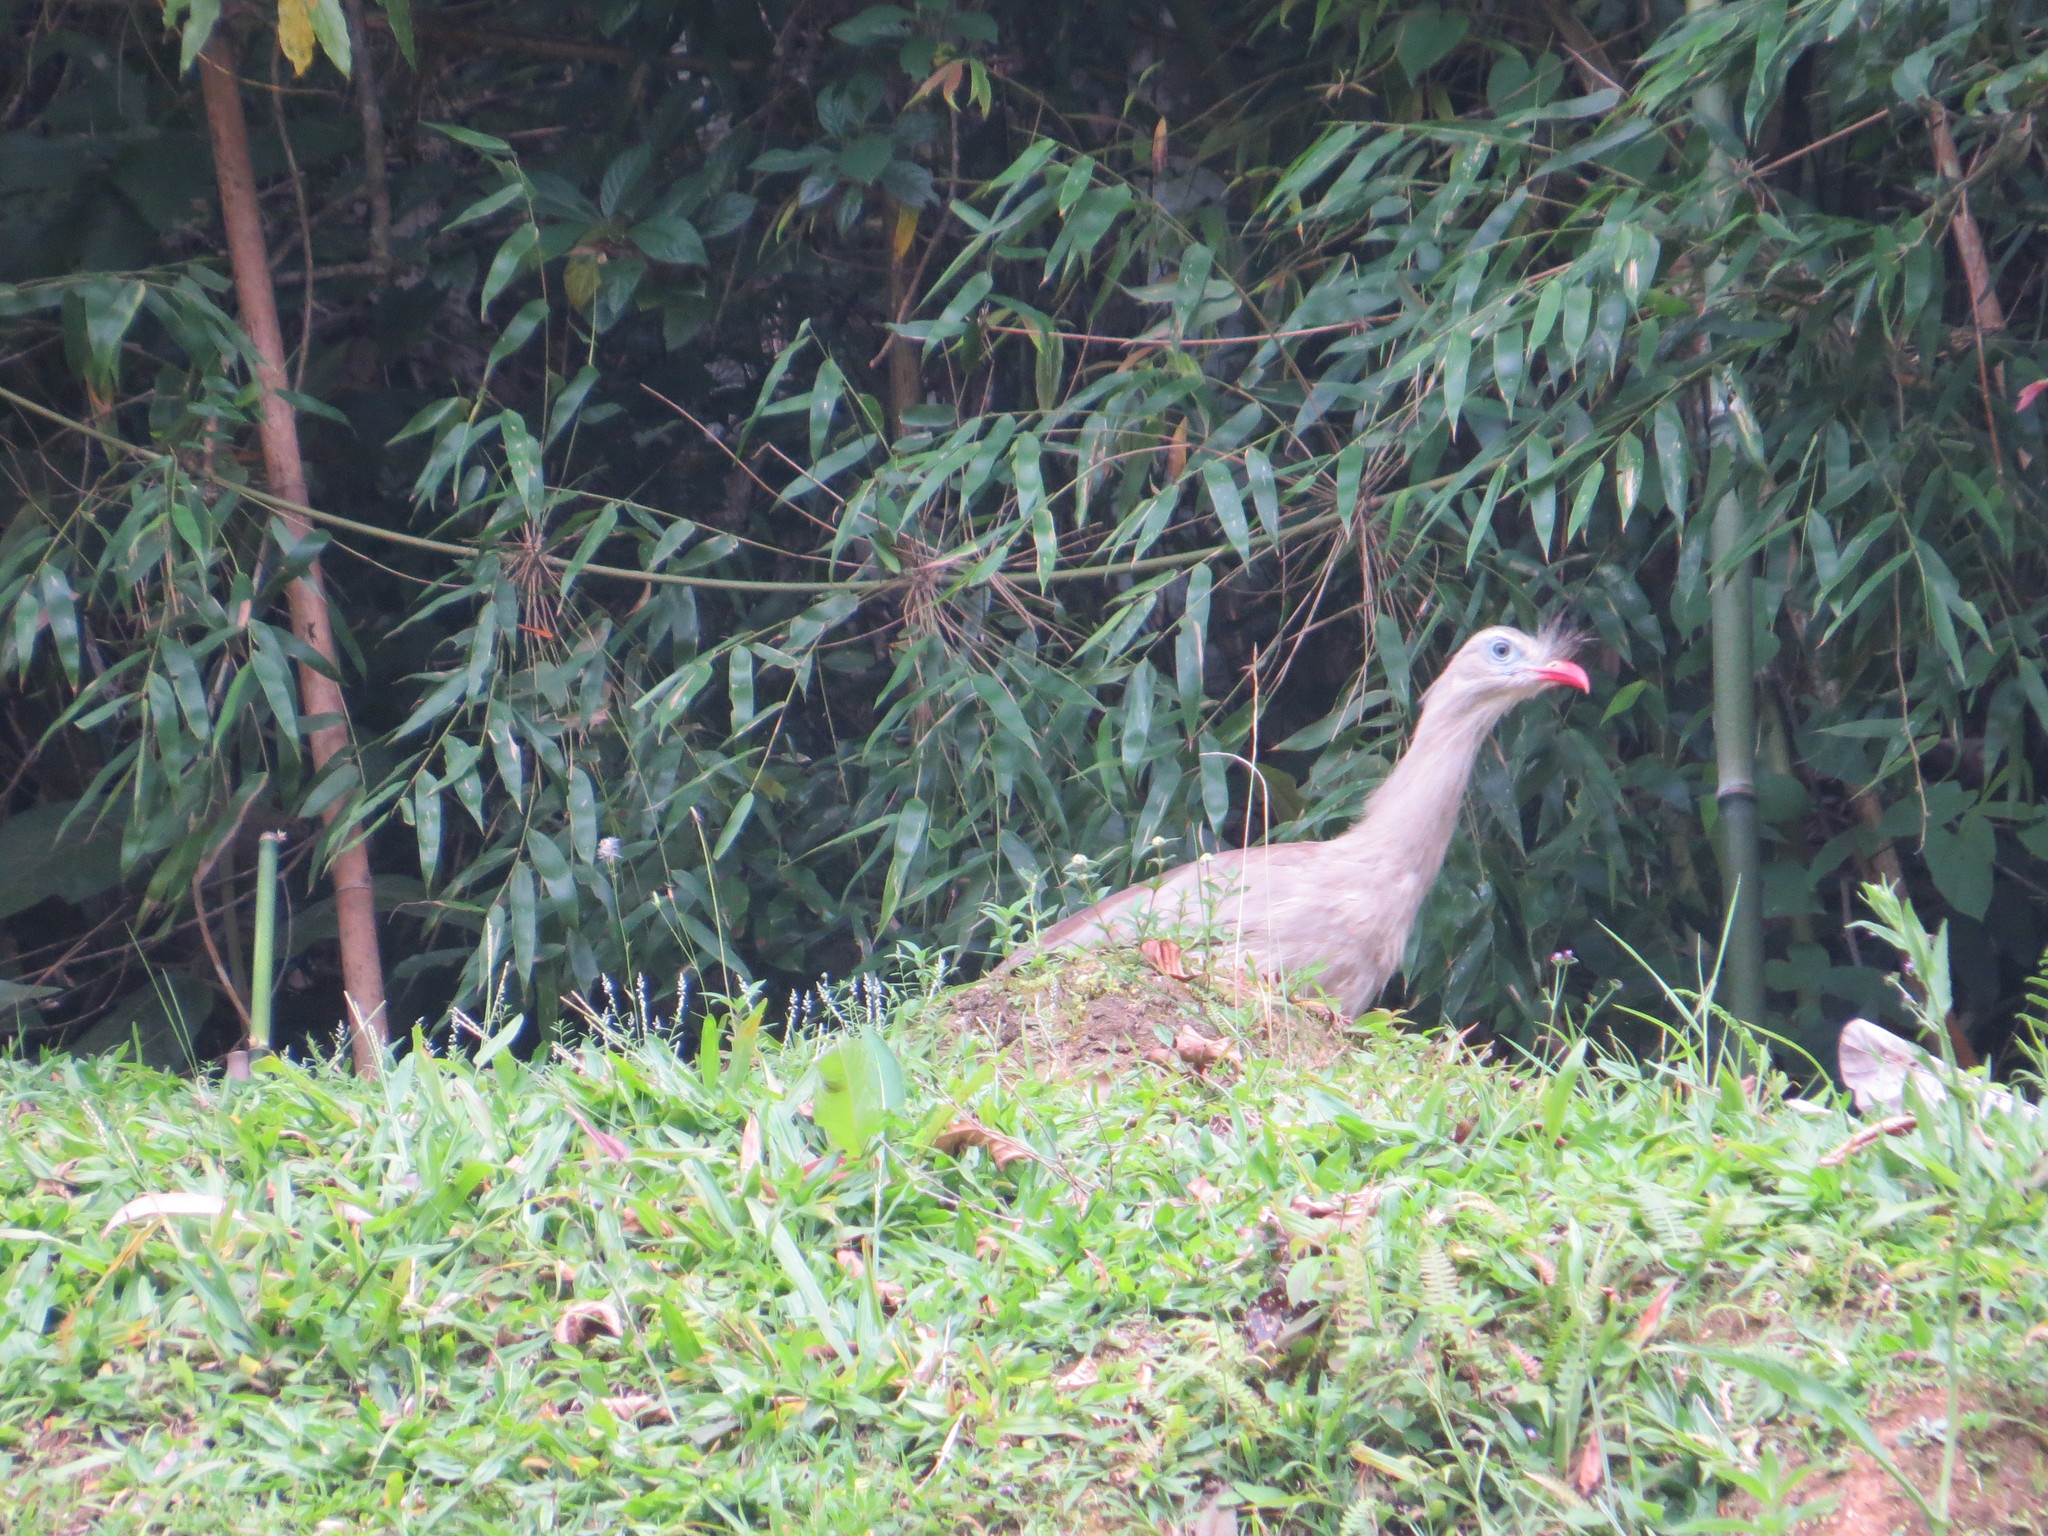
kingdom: Animalia
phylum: Chordata
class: Aves
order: Cariamiformes
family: Cariamidae
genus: Cariama
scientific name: Cariama cristata
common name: Red-legged seriema
